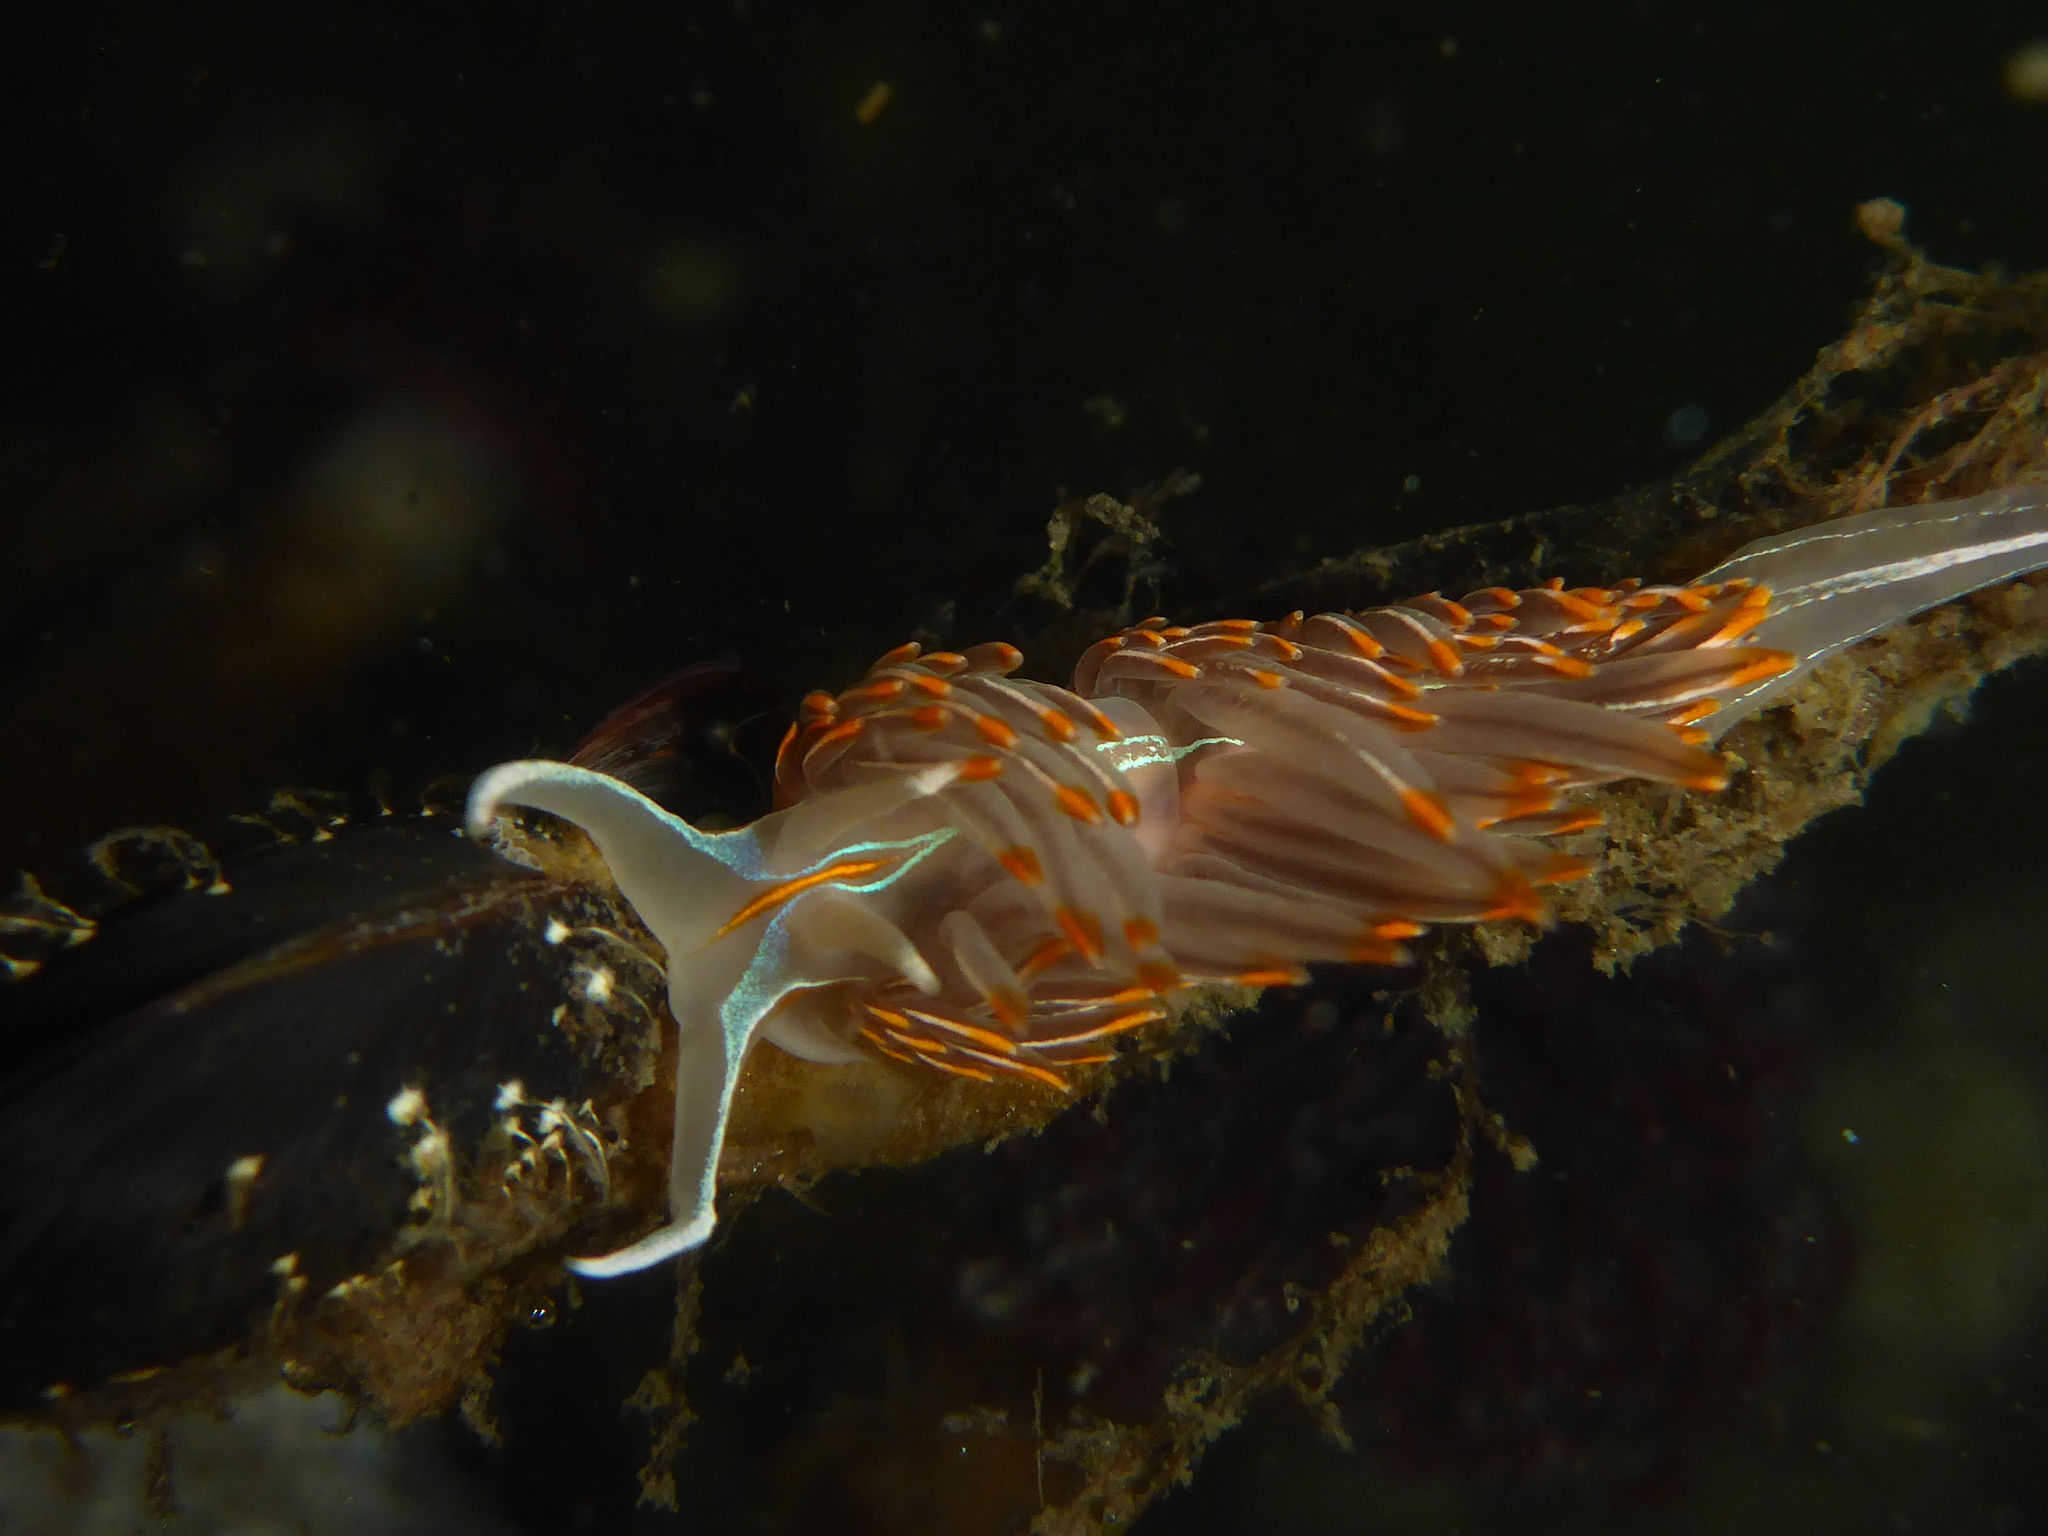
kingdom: Animalia
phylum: Mollusca
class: Gastropoda
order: Nudibranchia
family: Myrrhinidae
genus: Hermissenda
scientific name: Hermissenda crassicornis
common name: Hermissenda
